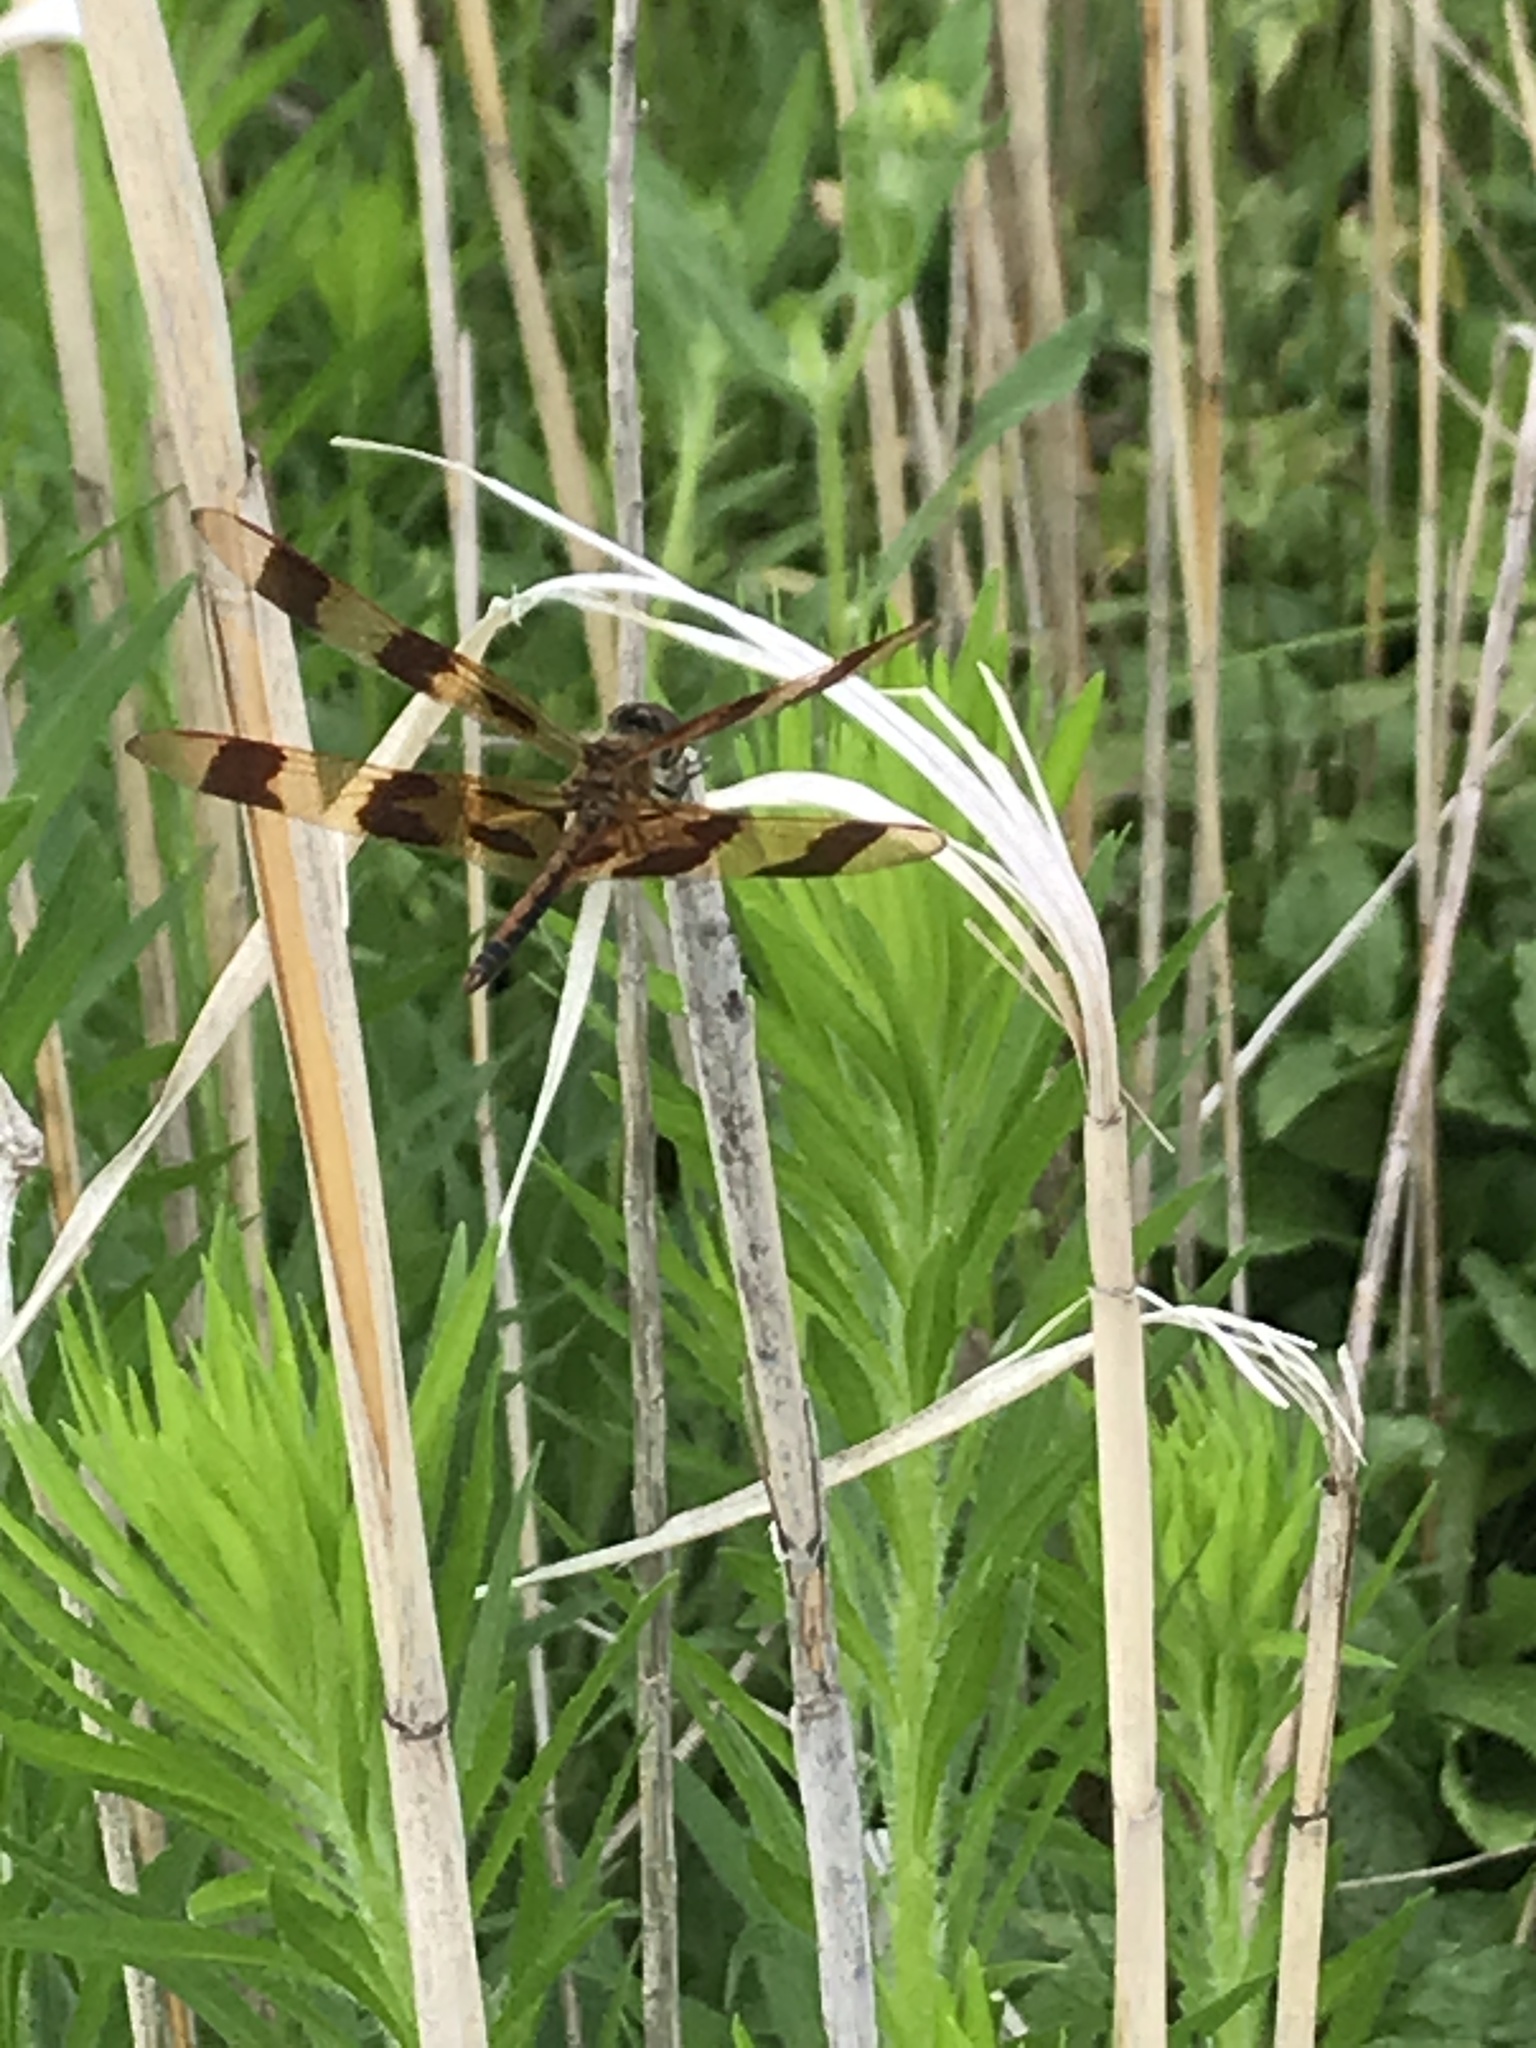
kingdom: Animalia
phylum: Arthropoda
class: Insecta
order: Odonata
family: Libellulidae
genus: Celithemis
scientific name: Celithemis eponina
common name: Halloween pennant
